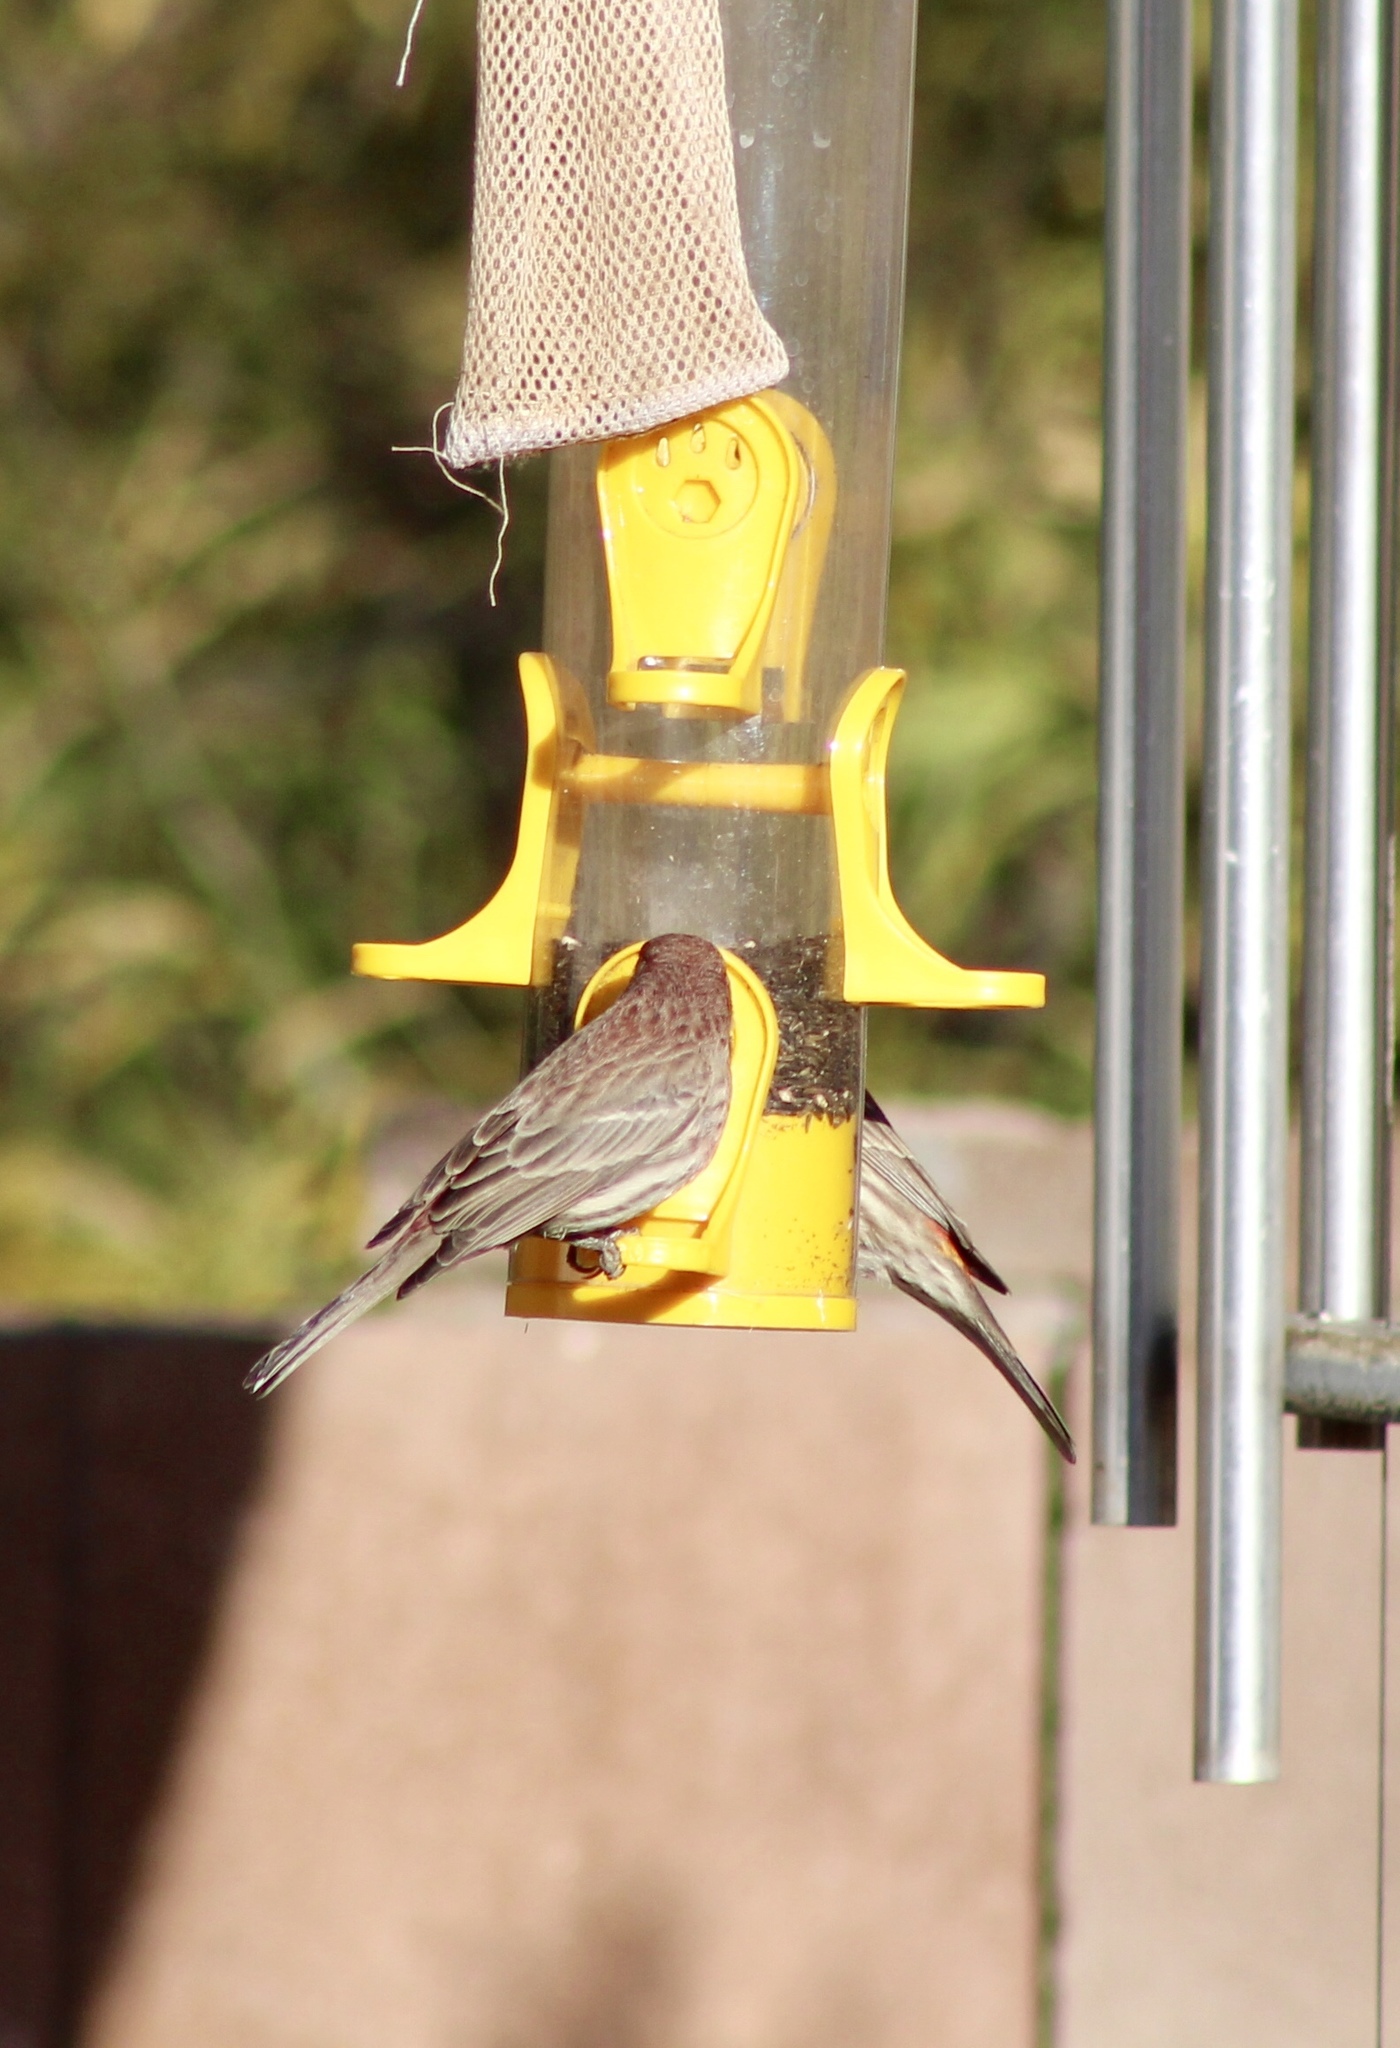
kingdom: Animalia
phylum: Chordata
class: Aves
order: Passeriformes
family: Fringillidae
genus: Haemorhous
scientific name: Haemorhous mexicanus
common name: House finch
